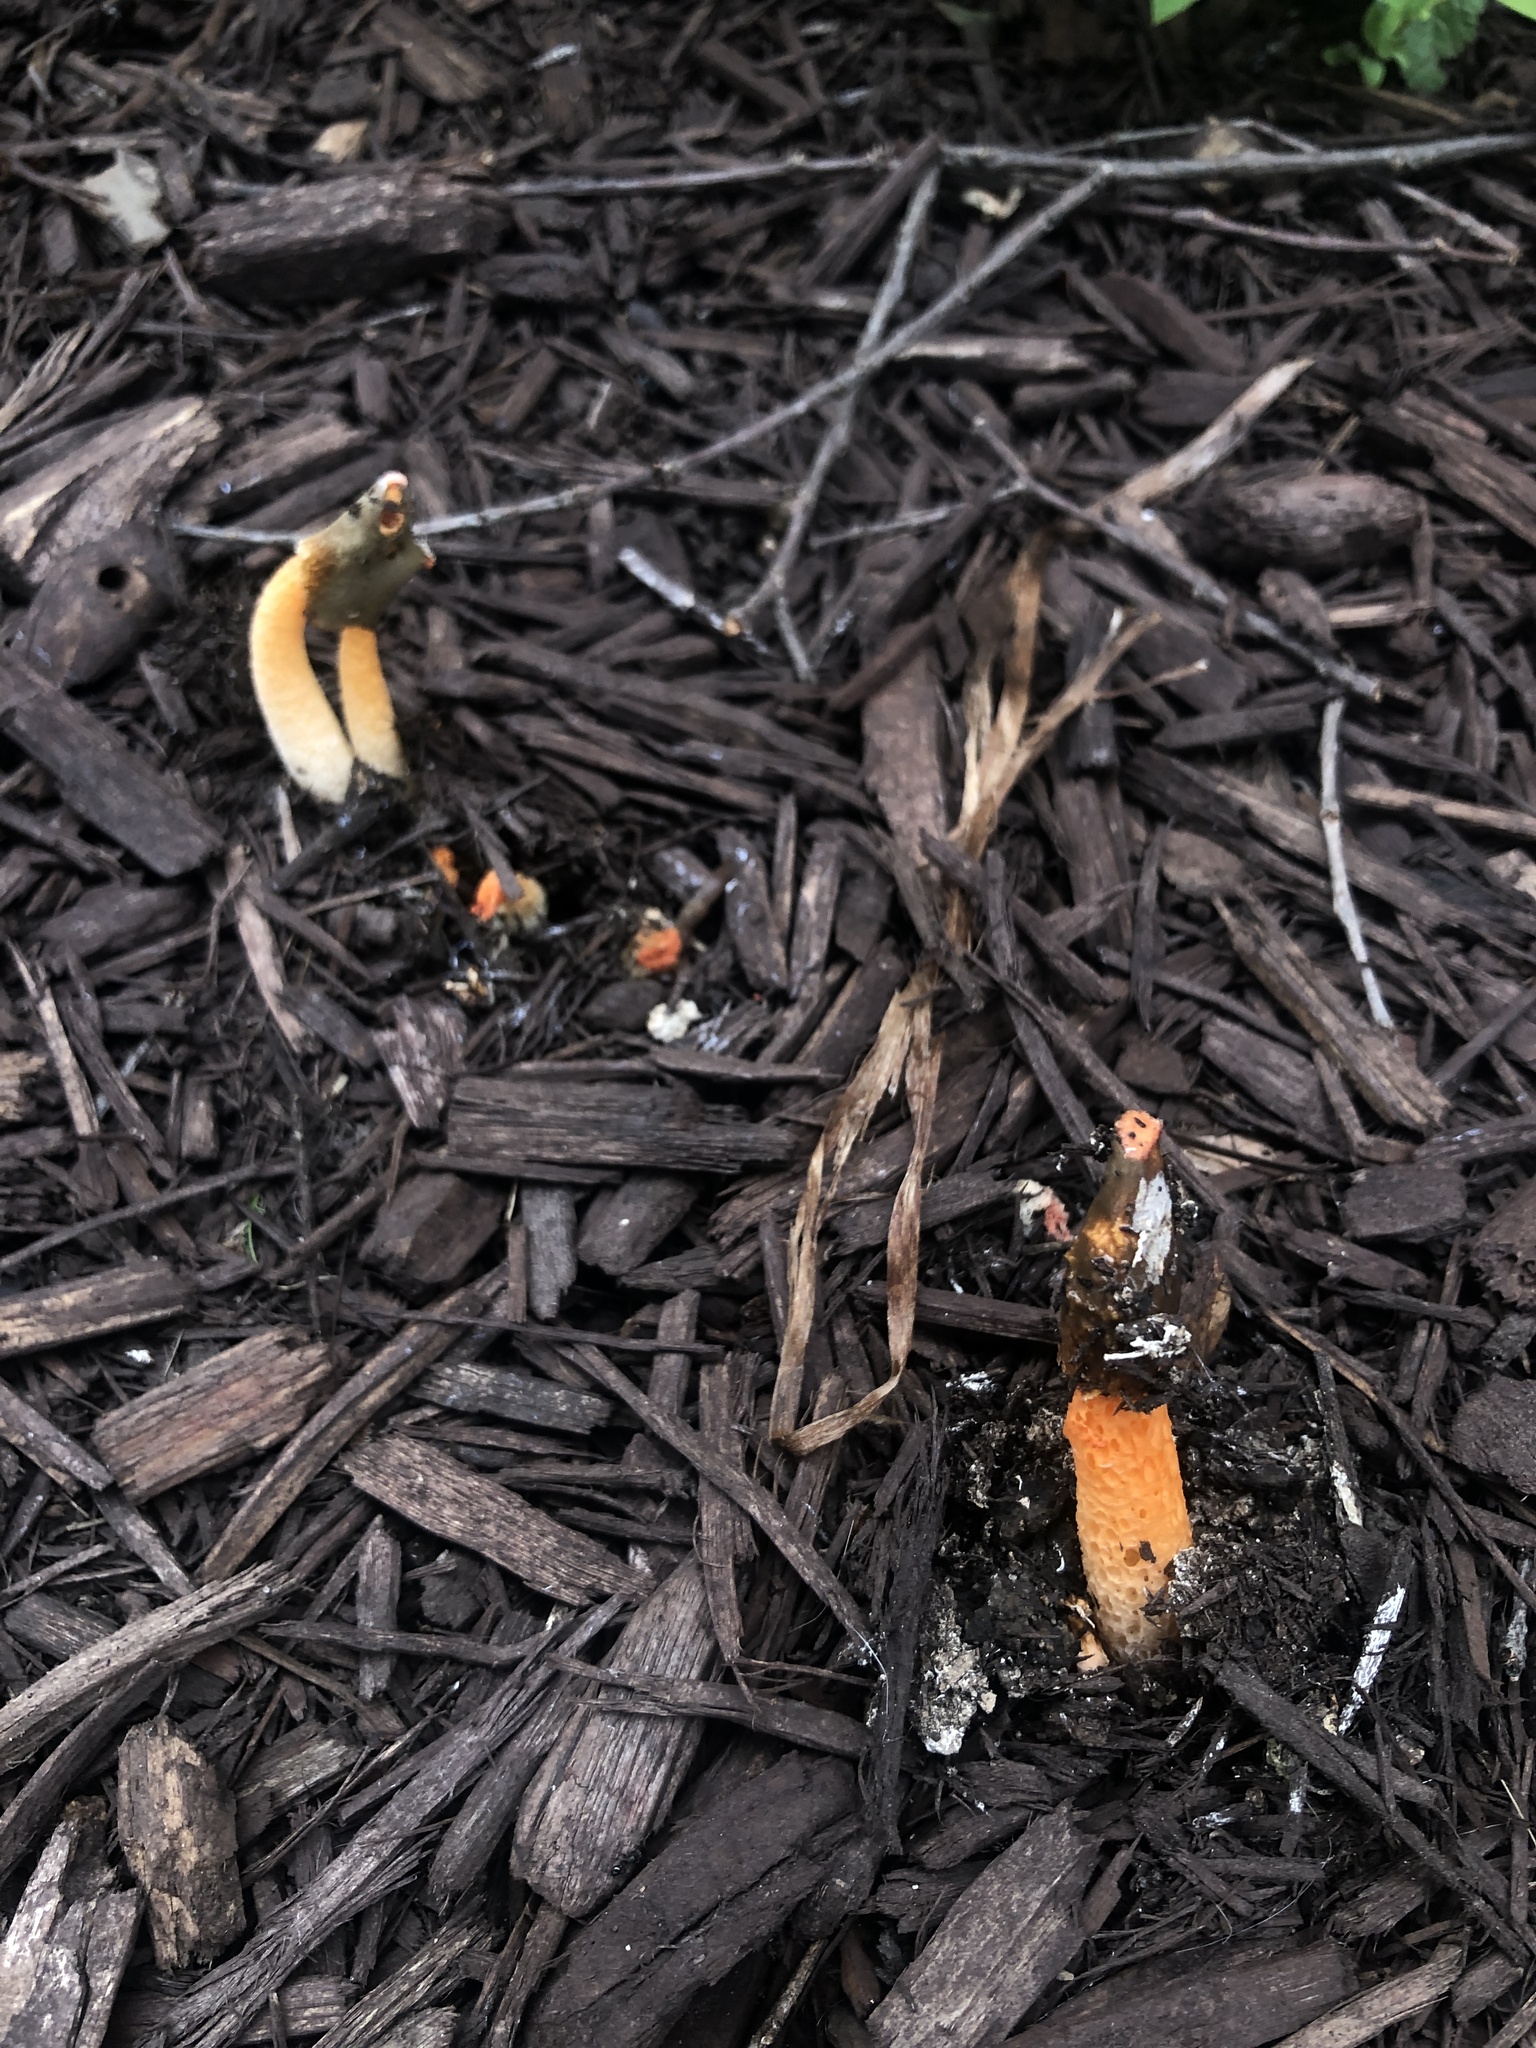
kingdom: Fungi
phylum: Basidiomycota
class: Agaricomycetes
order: Phallales
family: Phallaceae
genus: Phallus
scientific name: Phallus rugulosus
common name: Wrinkly stinkhorn
